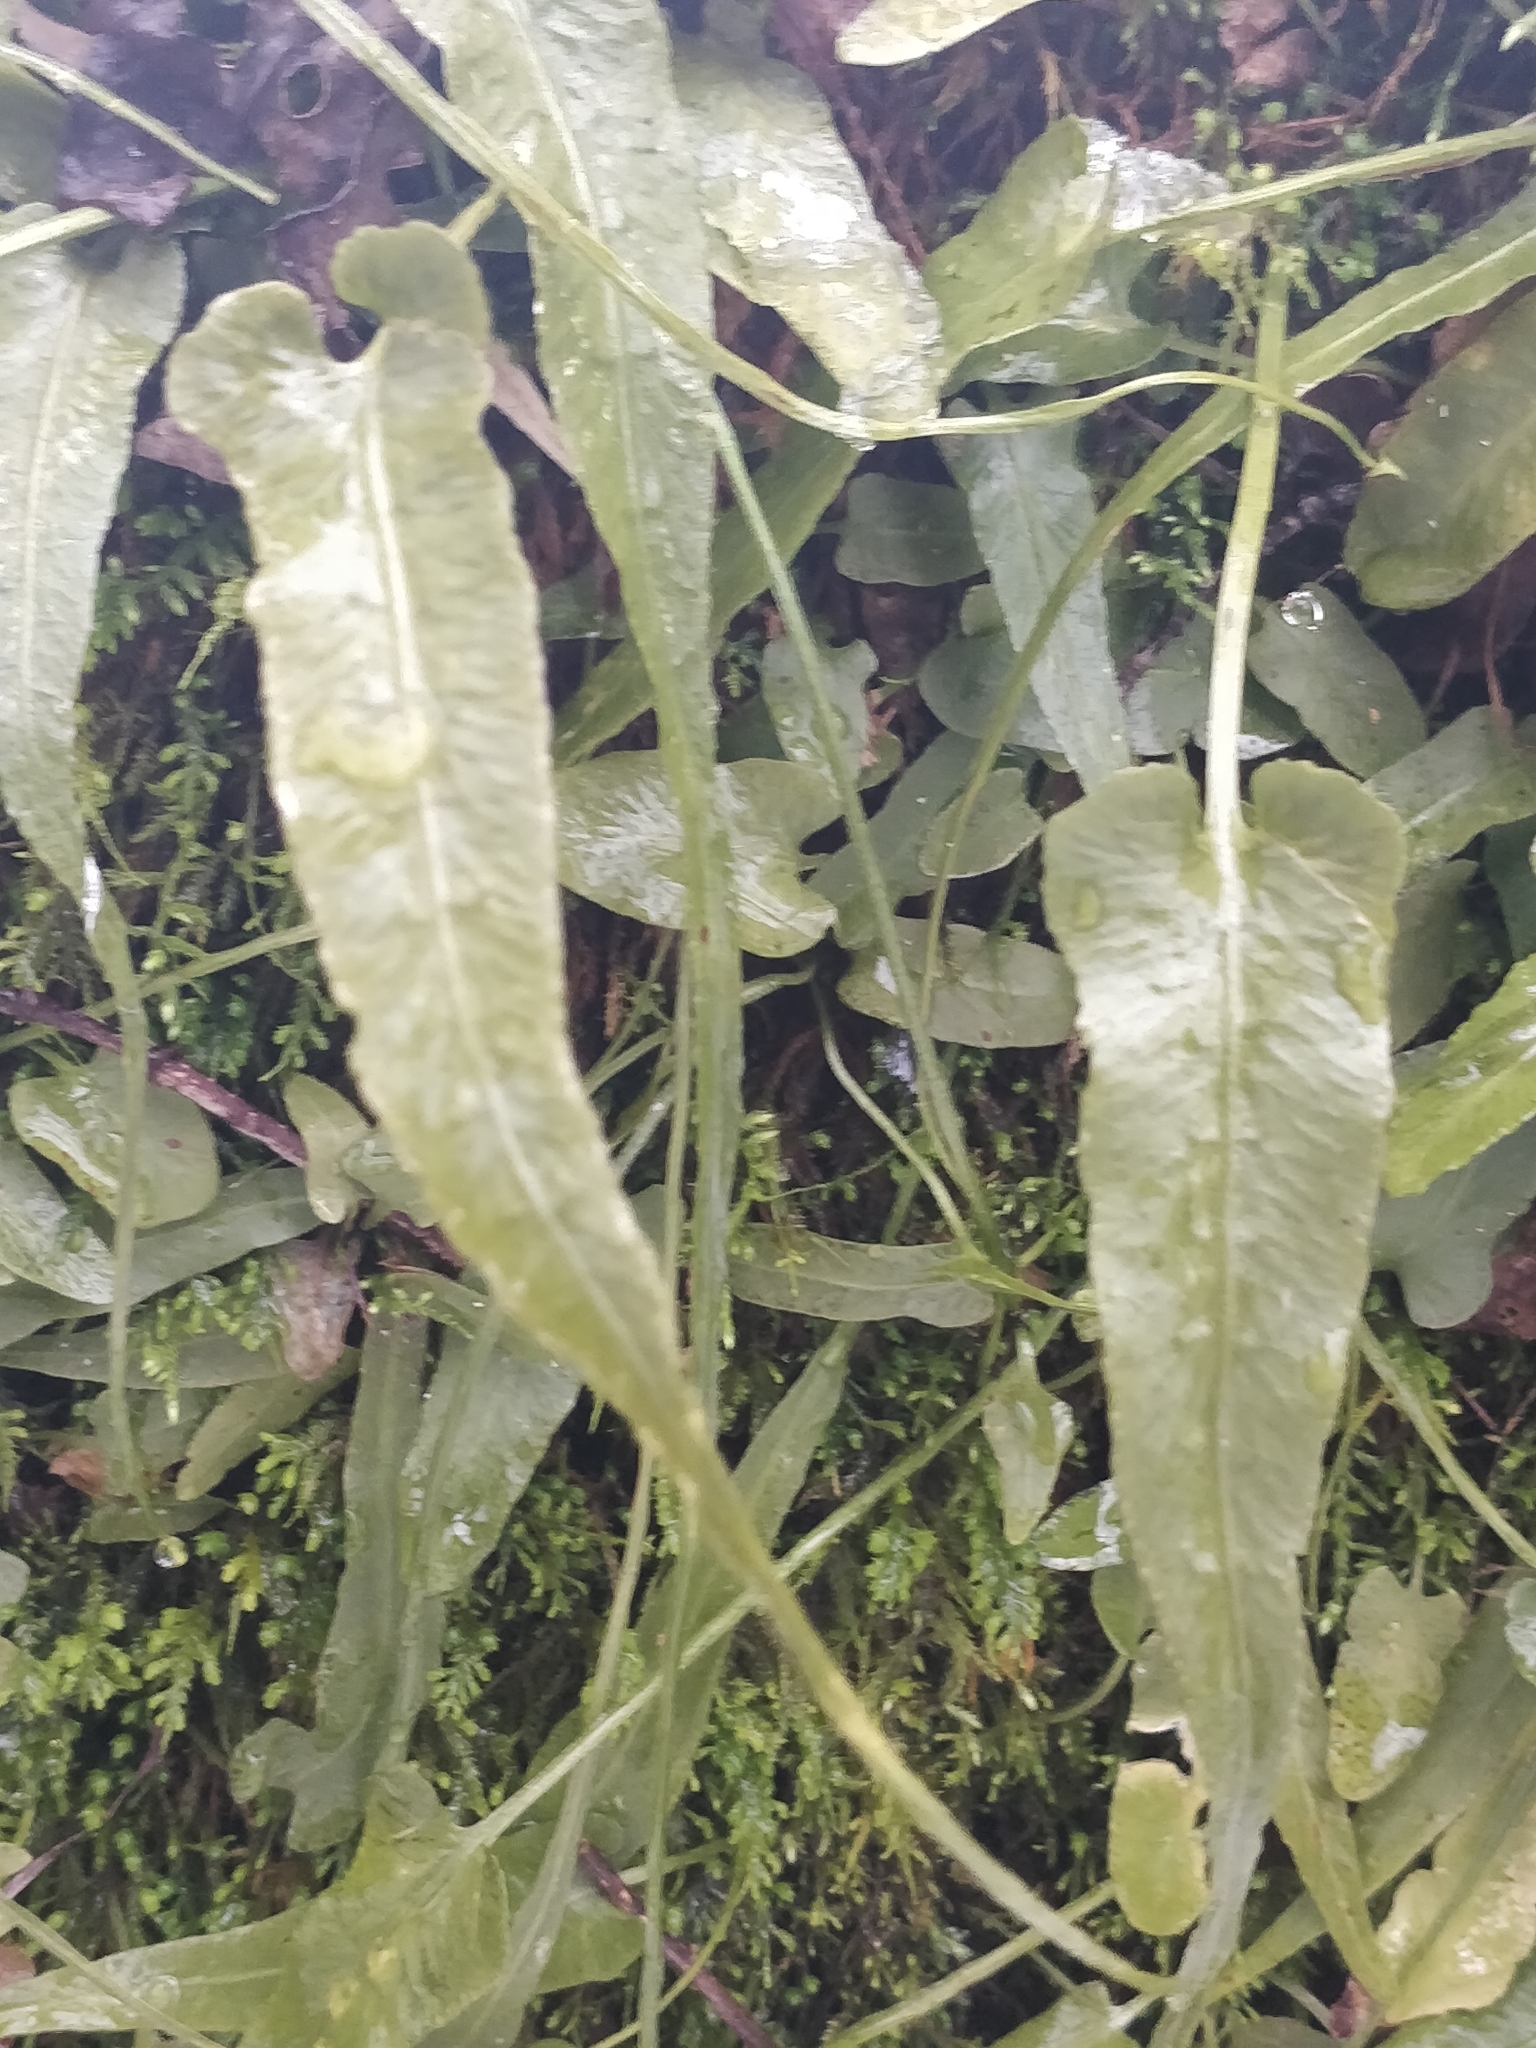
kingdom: Plantae
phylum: Tracheophyta
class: Polypodiopsida
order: Polypodiales
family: Aspleniaceae
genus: Asplenium
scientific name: Asplenium rhizophyllum
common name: Walking fern
